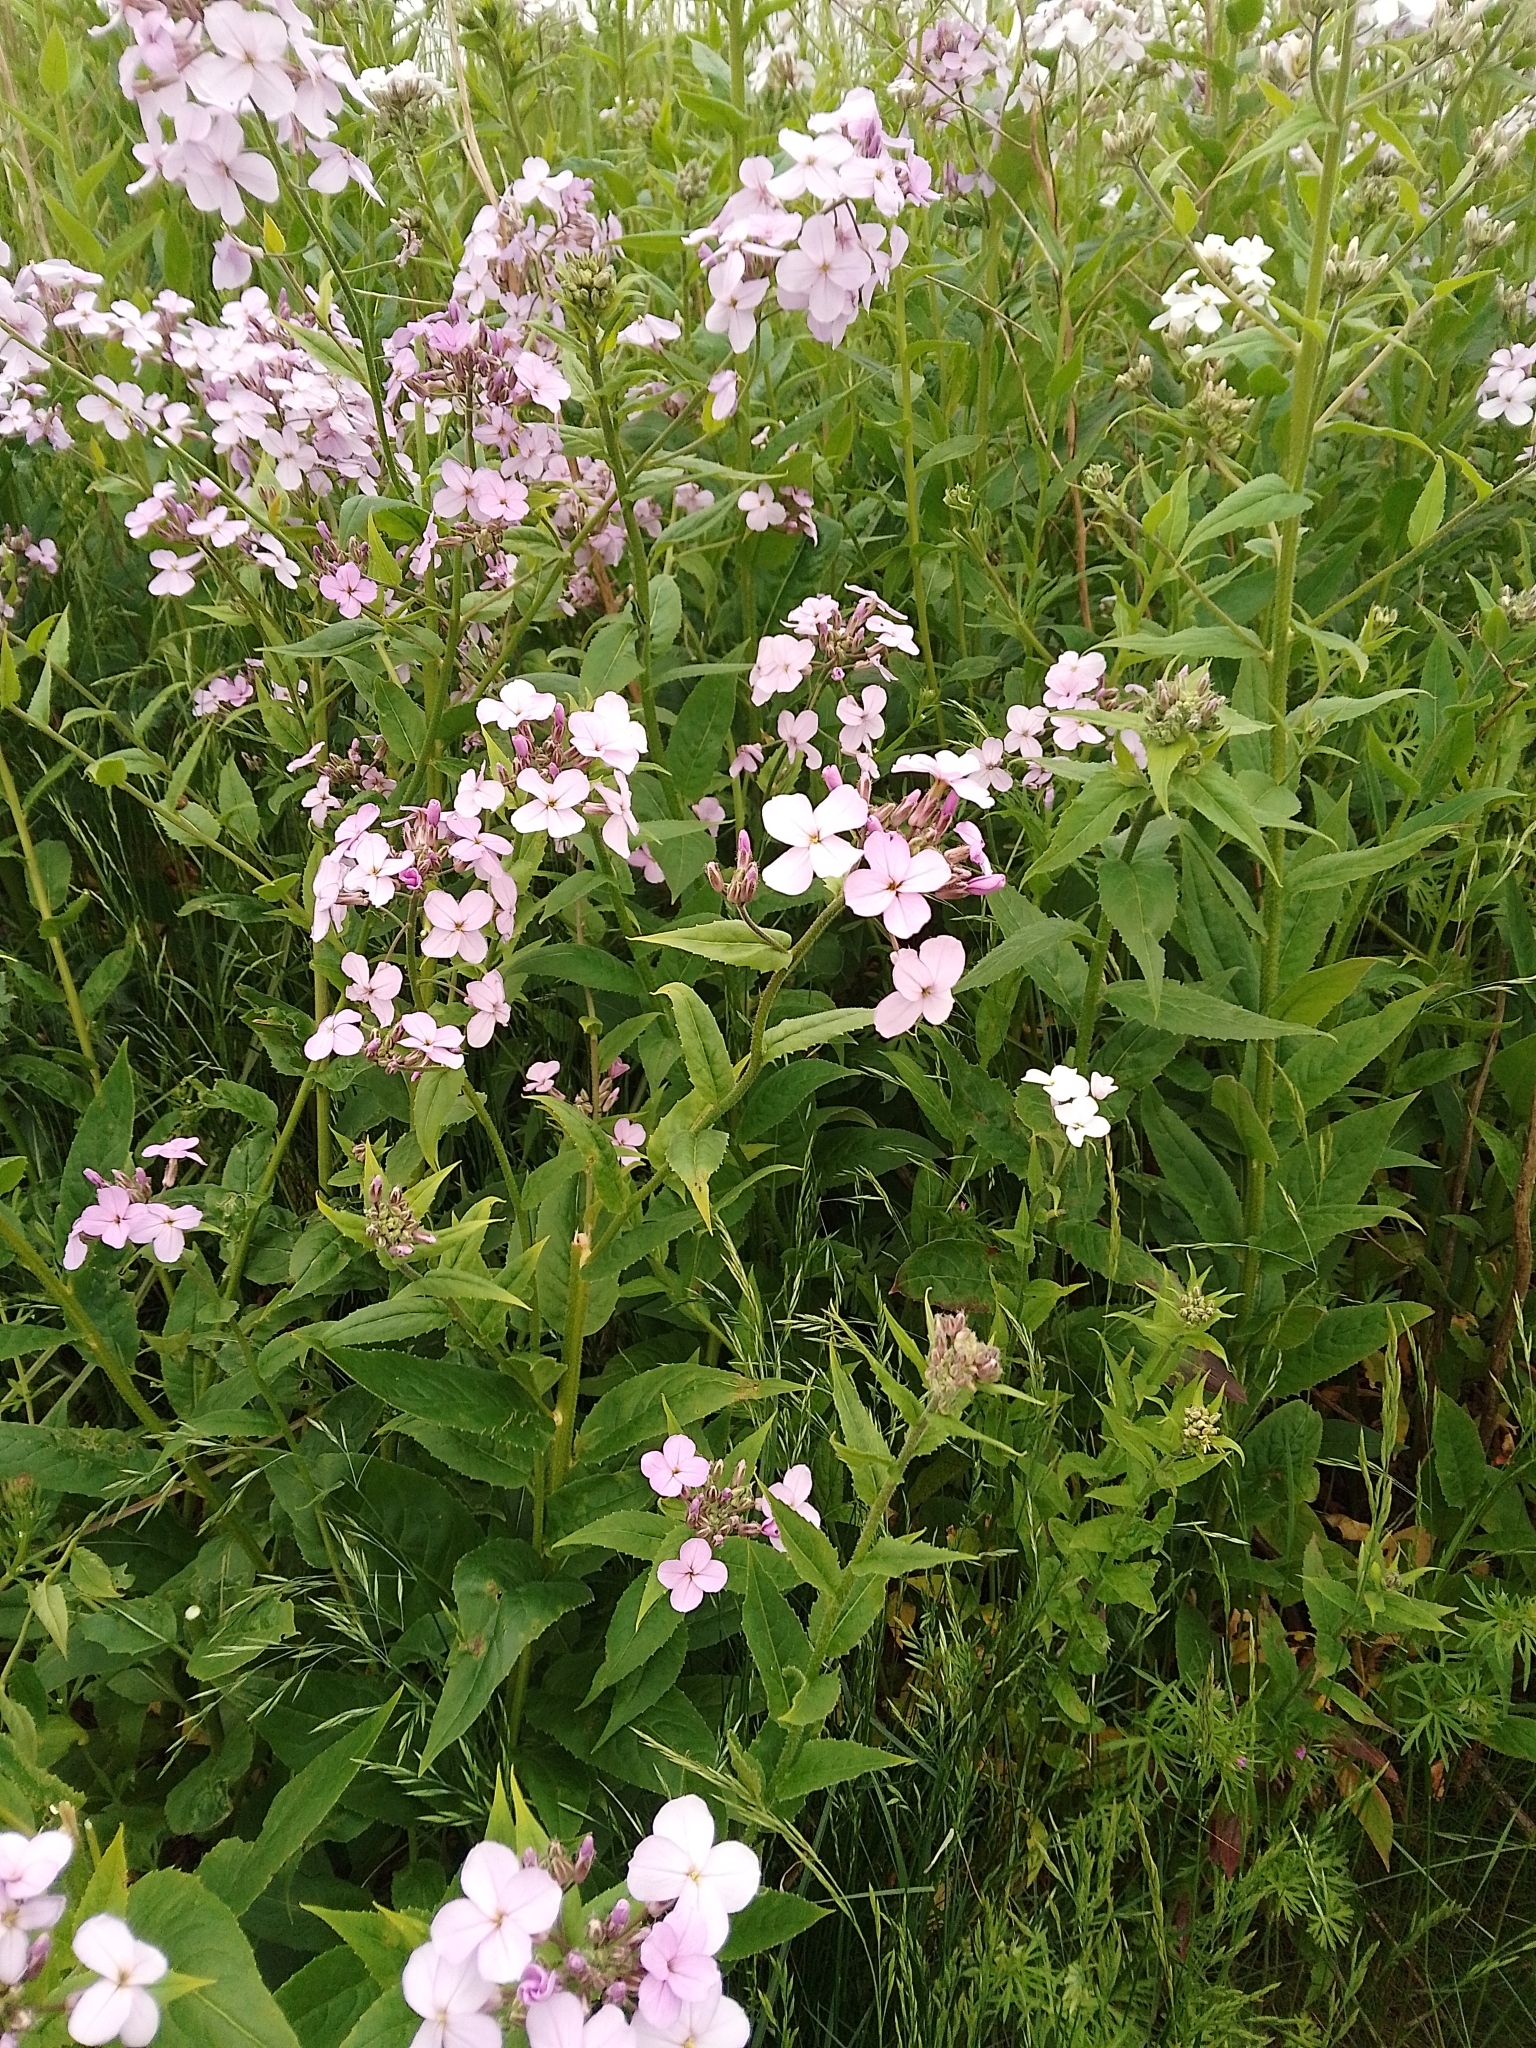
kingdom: Plantae
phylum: Tracheophyta
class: Magnoliopsida
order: Brassicales
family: Brassicaceae
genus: Hesperis
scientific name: Hesperis matronalis
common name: Dame's-violet
